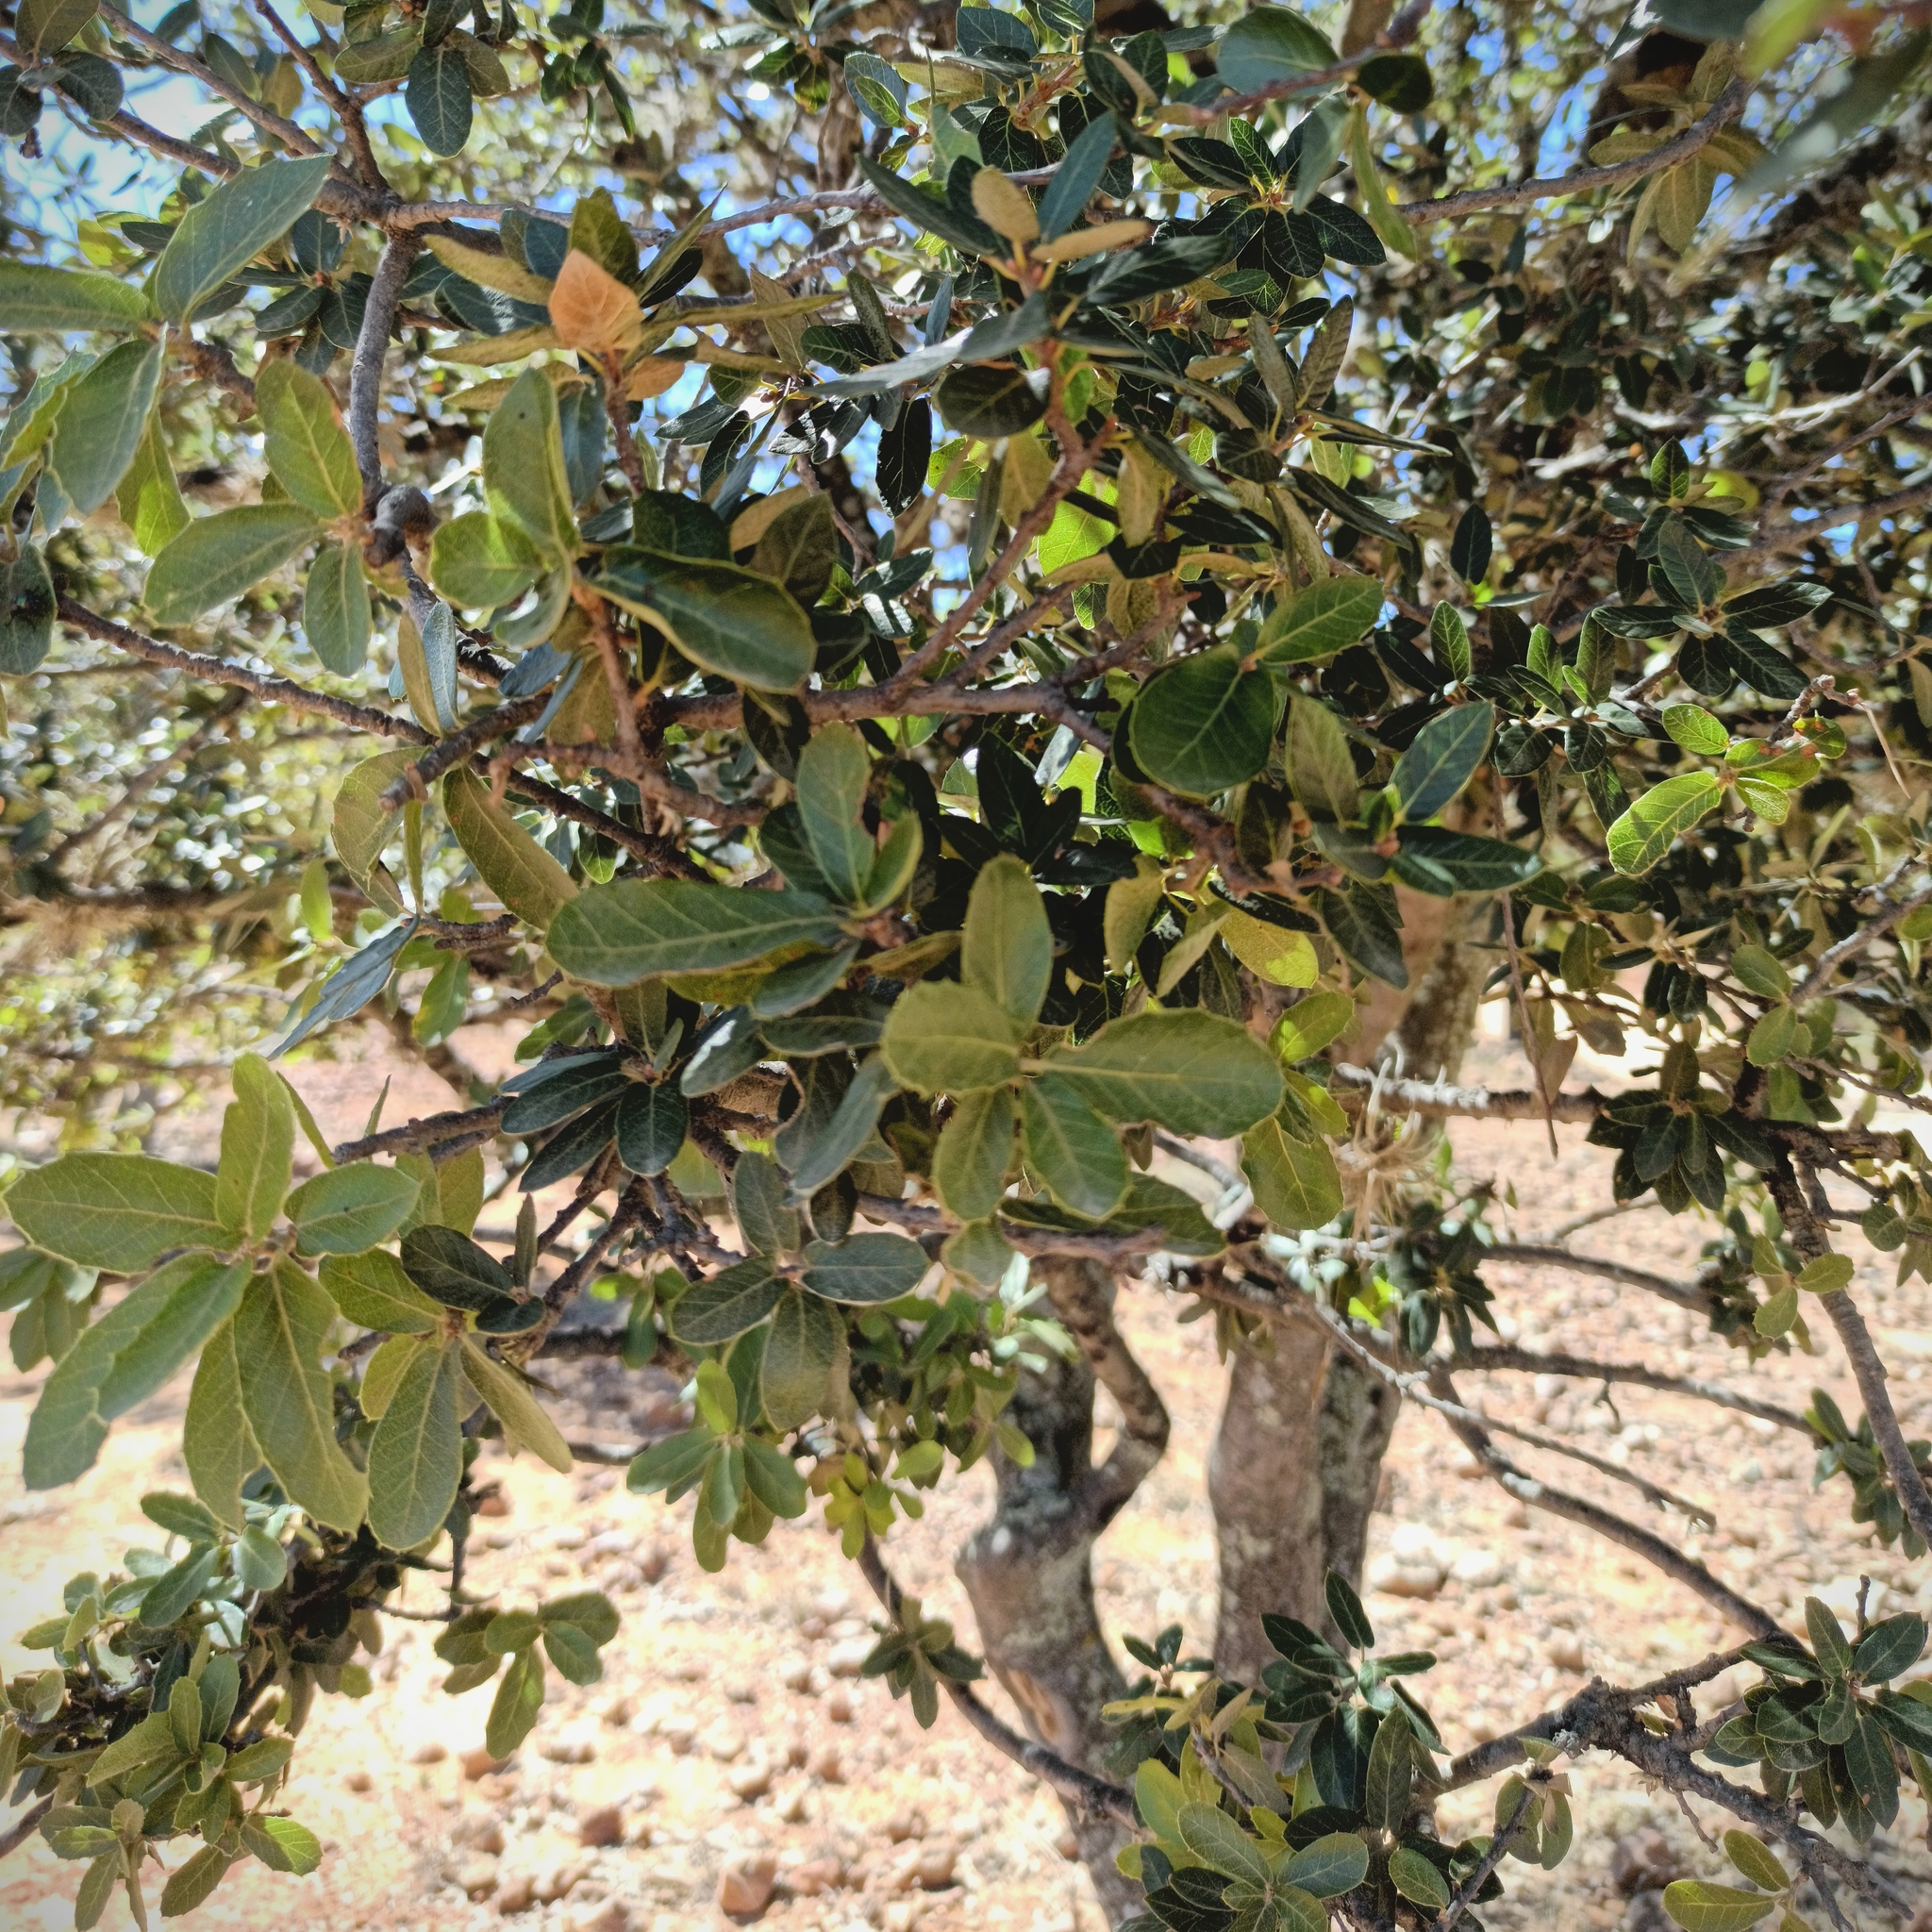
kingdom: Plantae
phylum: Tracheophyta
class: Magnoliopsida
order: Fagales
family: Fagaceae
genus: Quercus
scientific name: Quercus eduardi
